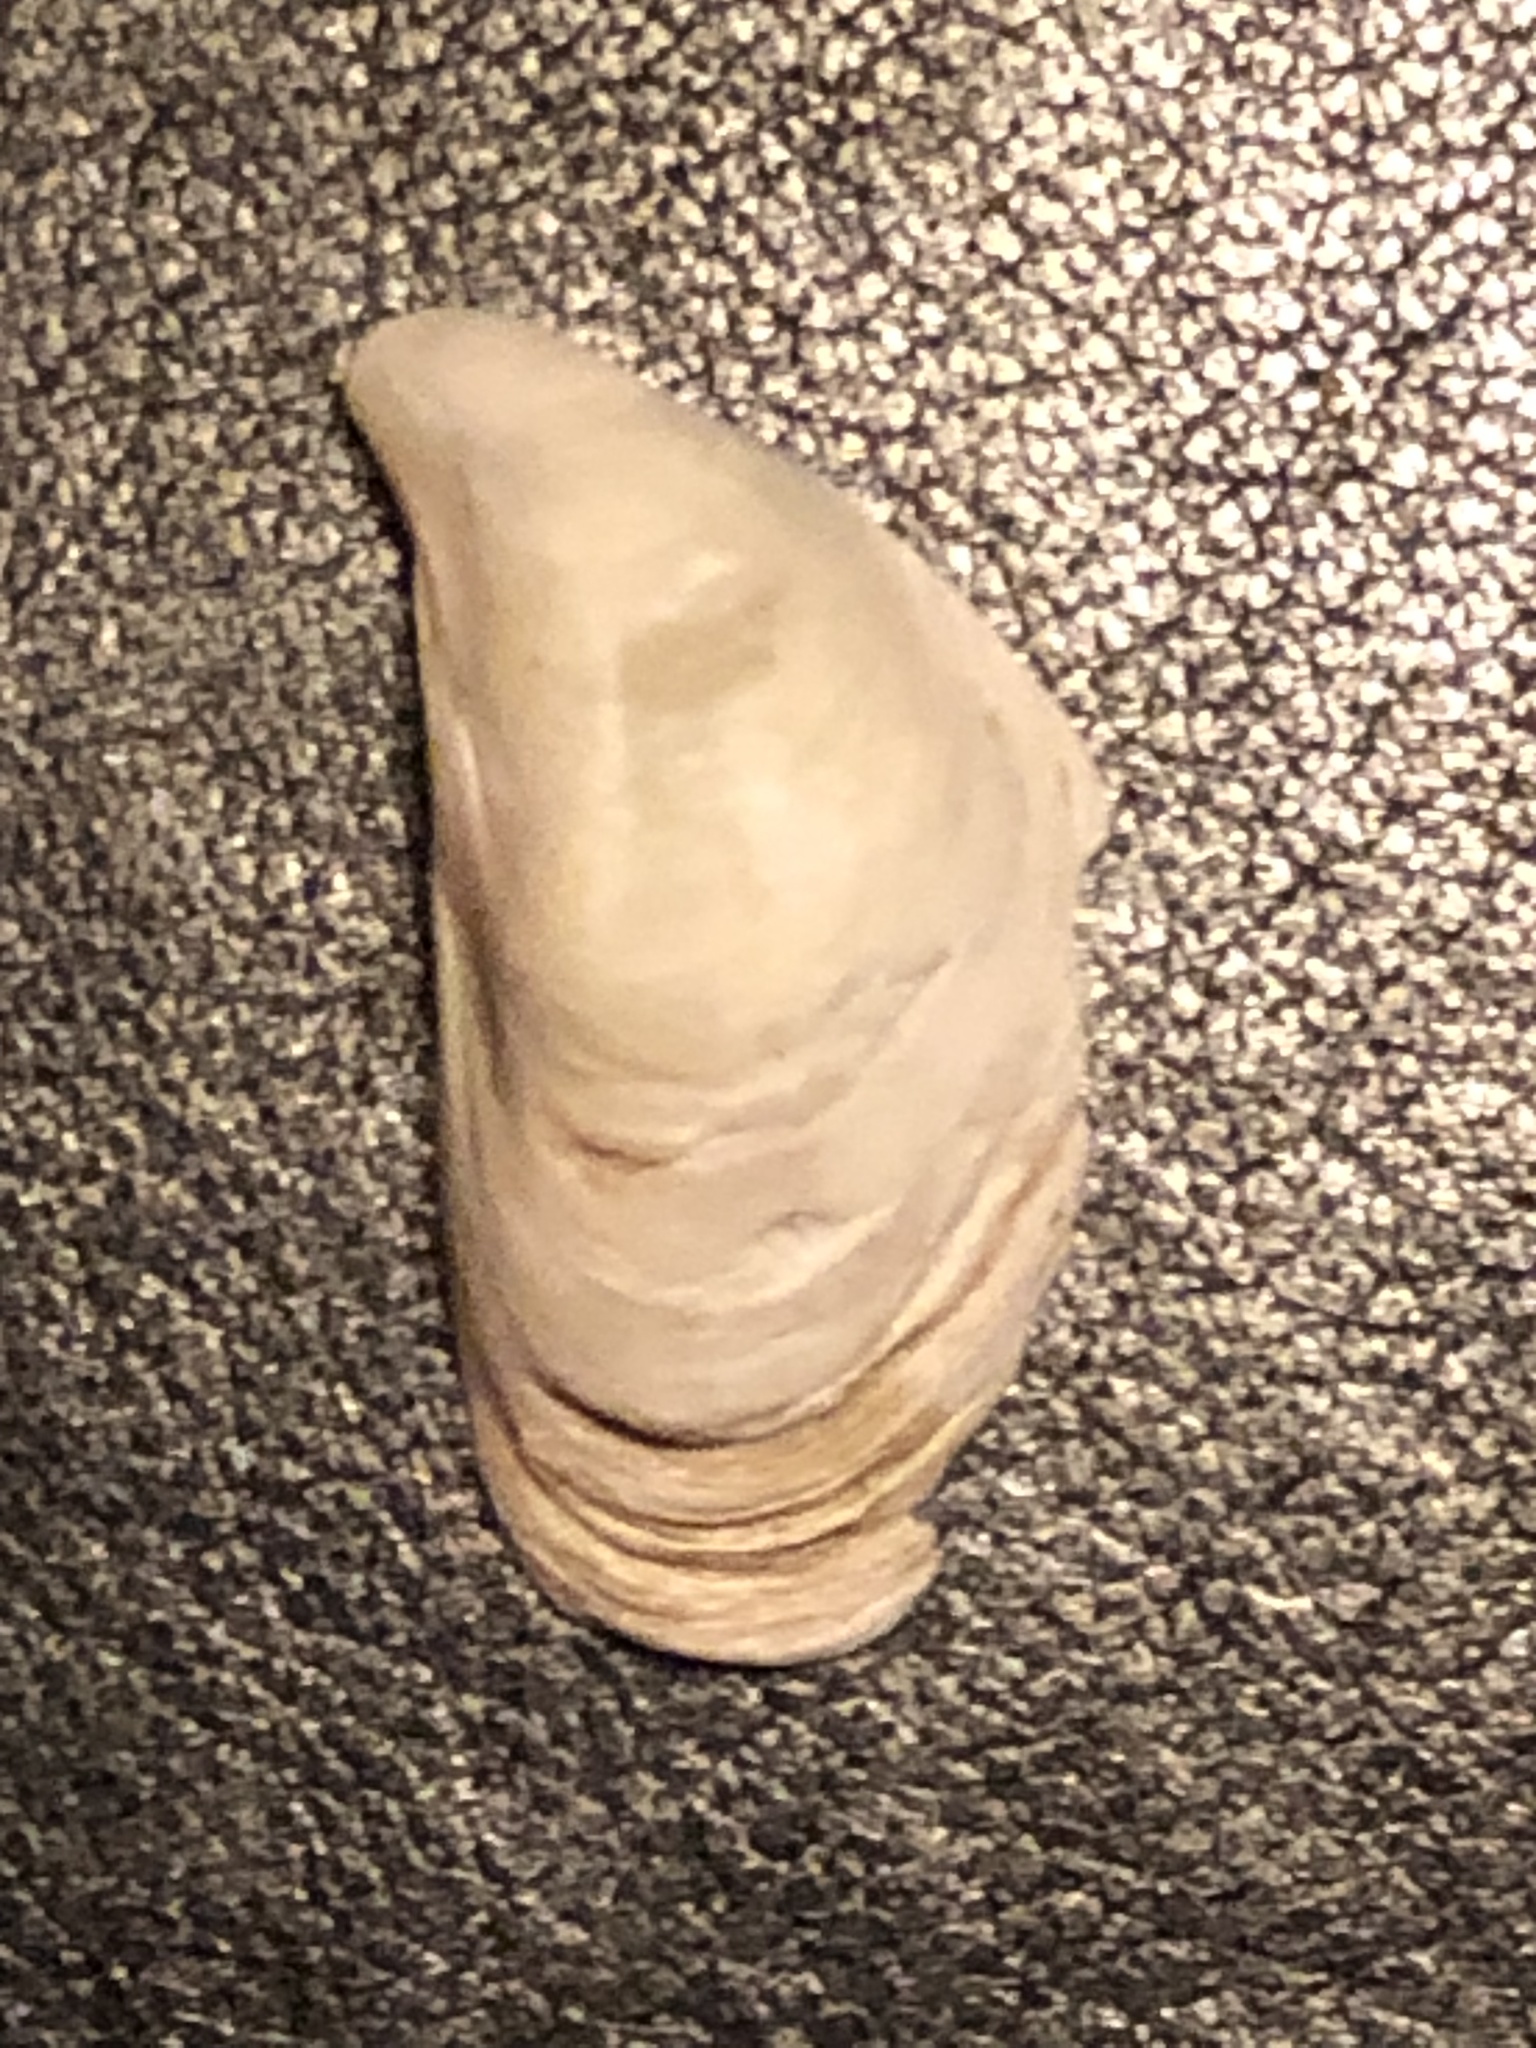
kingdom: Animalia
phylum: Mollusca
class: Bivalvia
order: Myida
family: Dreissenidae
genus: Dreissena
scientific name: Dreissena bugensis
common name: Quagga mussel
